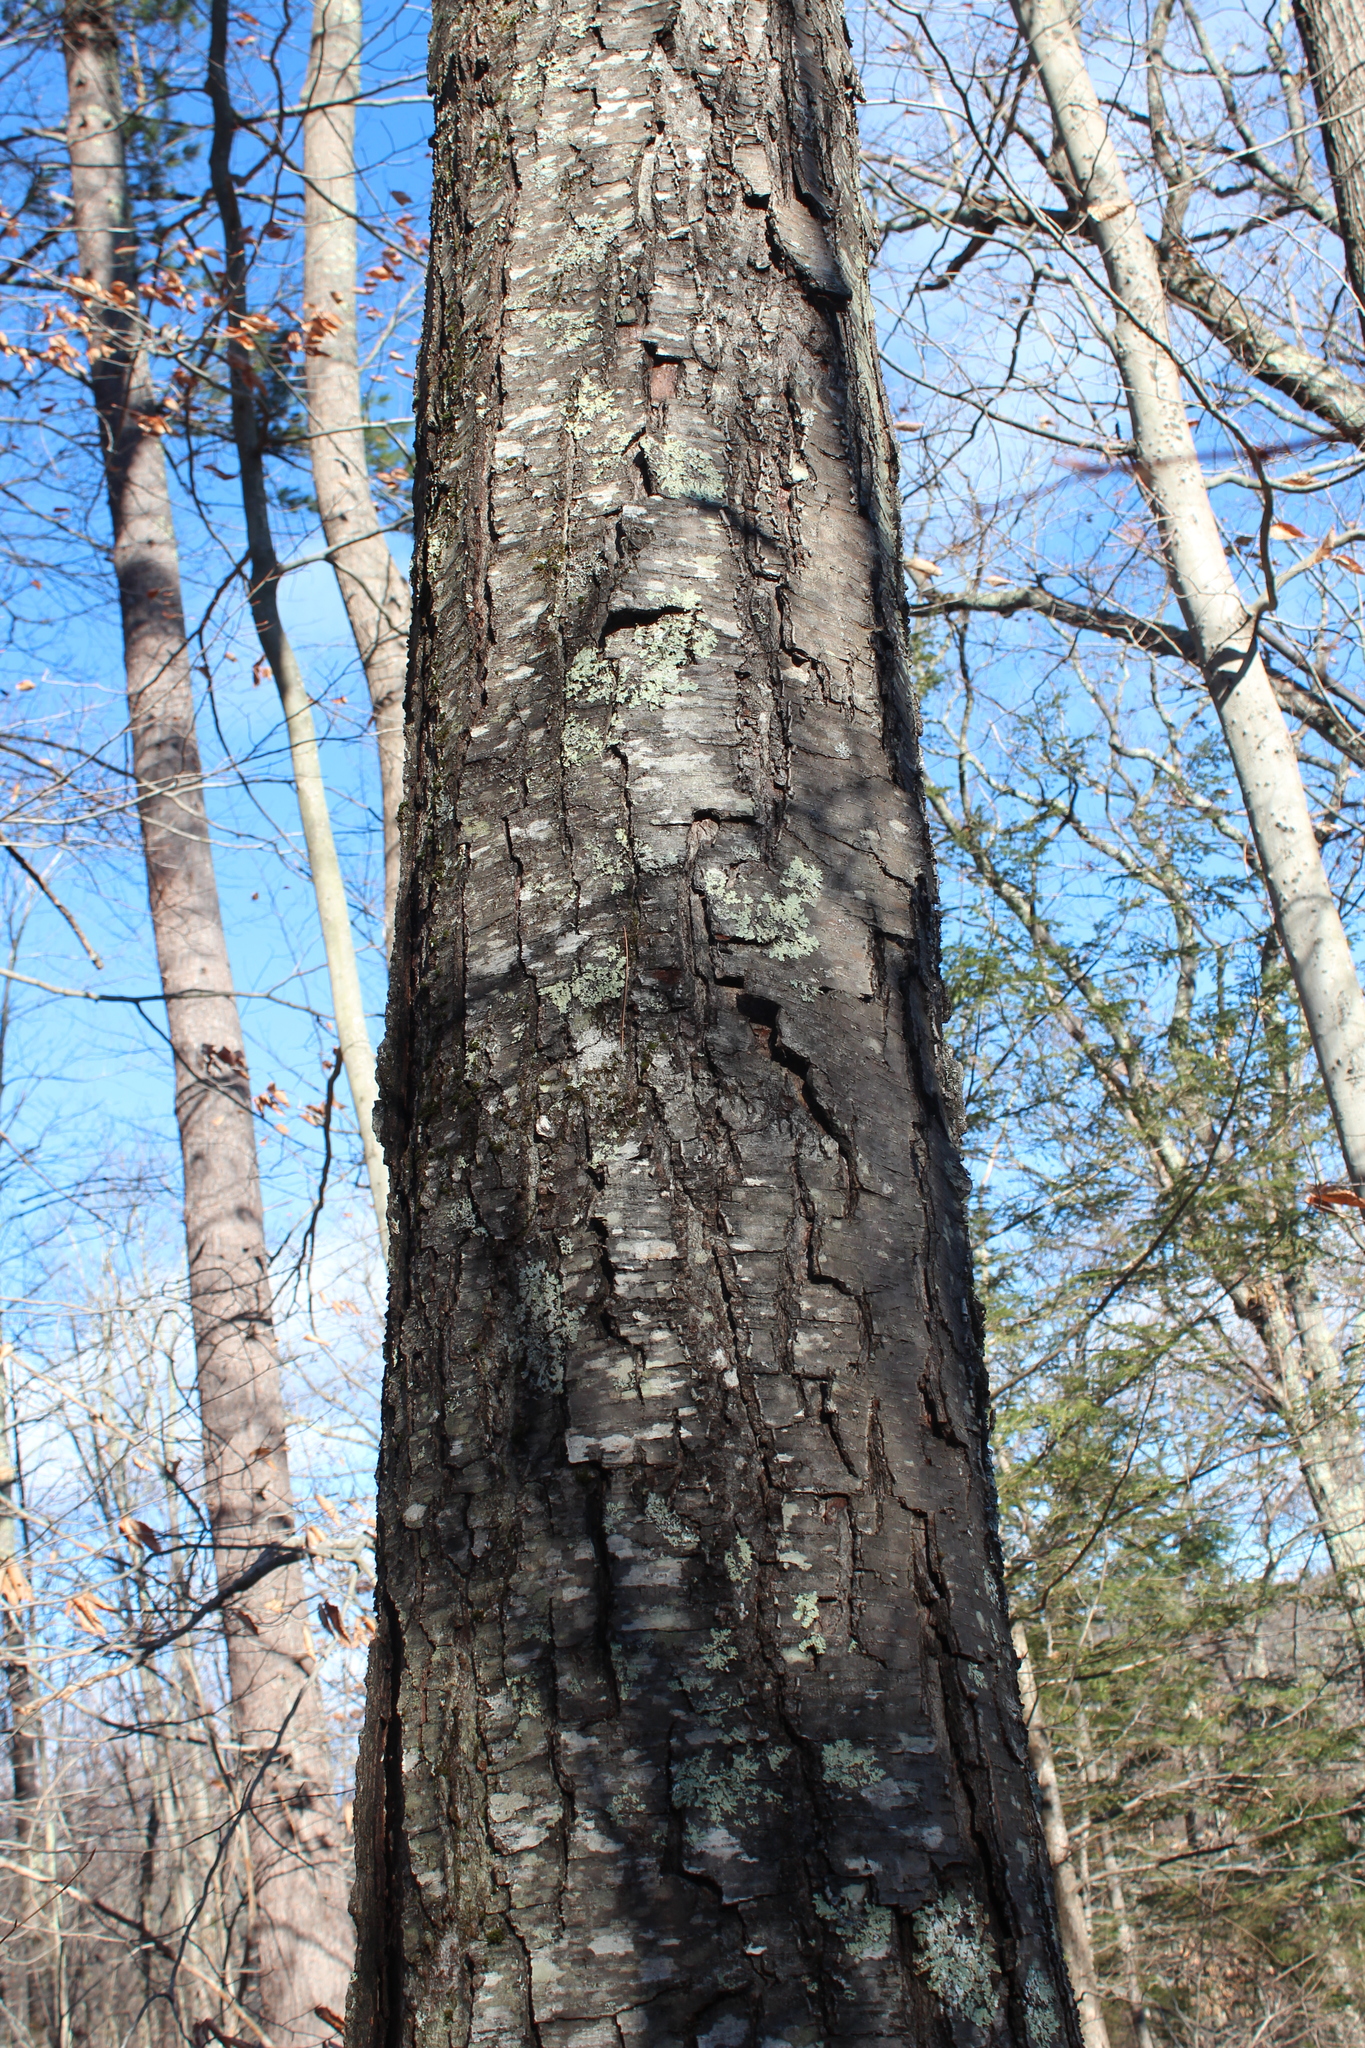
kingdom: Plantae
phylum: Tracheophyta
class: Magnoliopsida
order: Fagales
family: Betulaceae
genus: Betula
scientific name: Betula lenta
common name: Black birch
